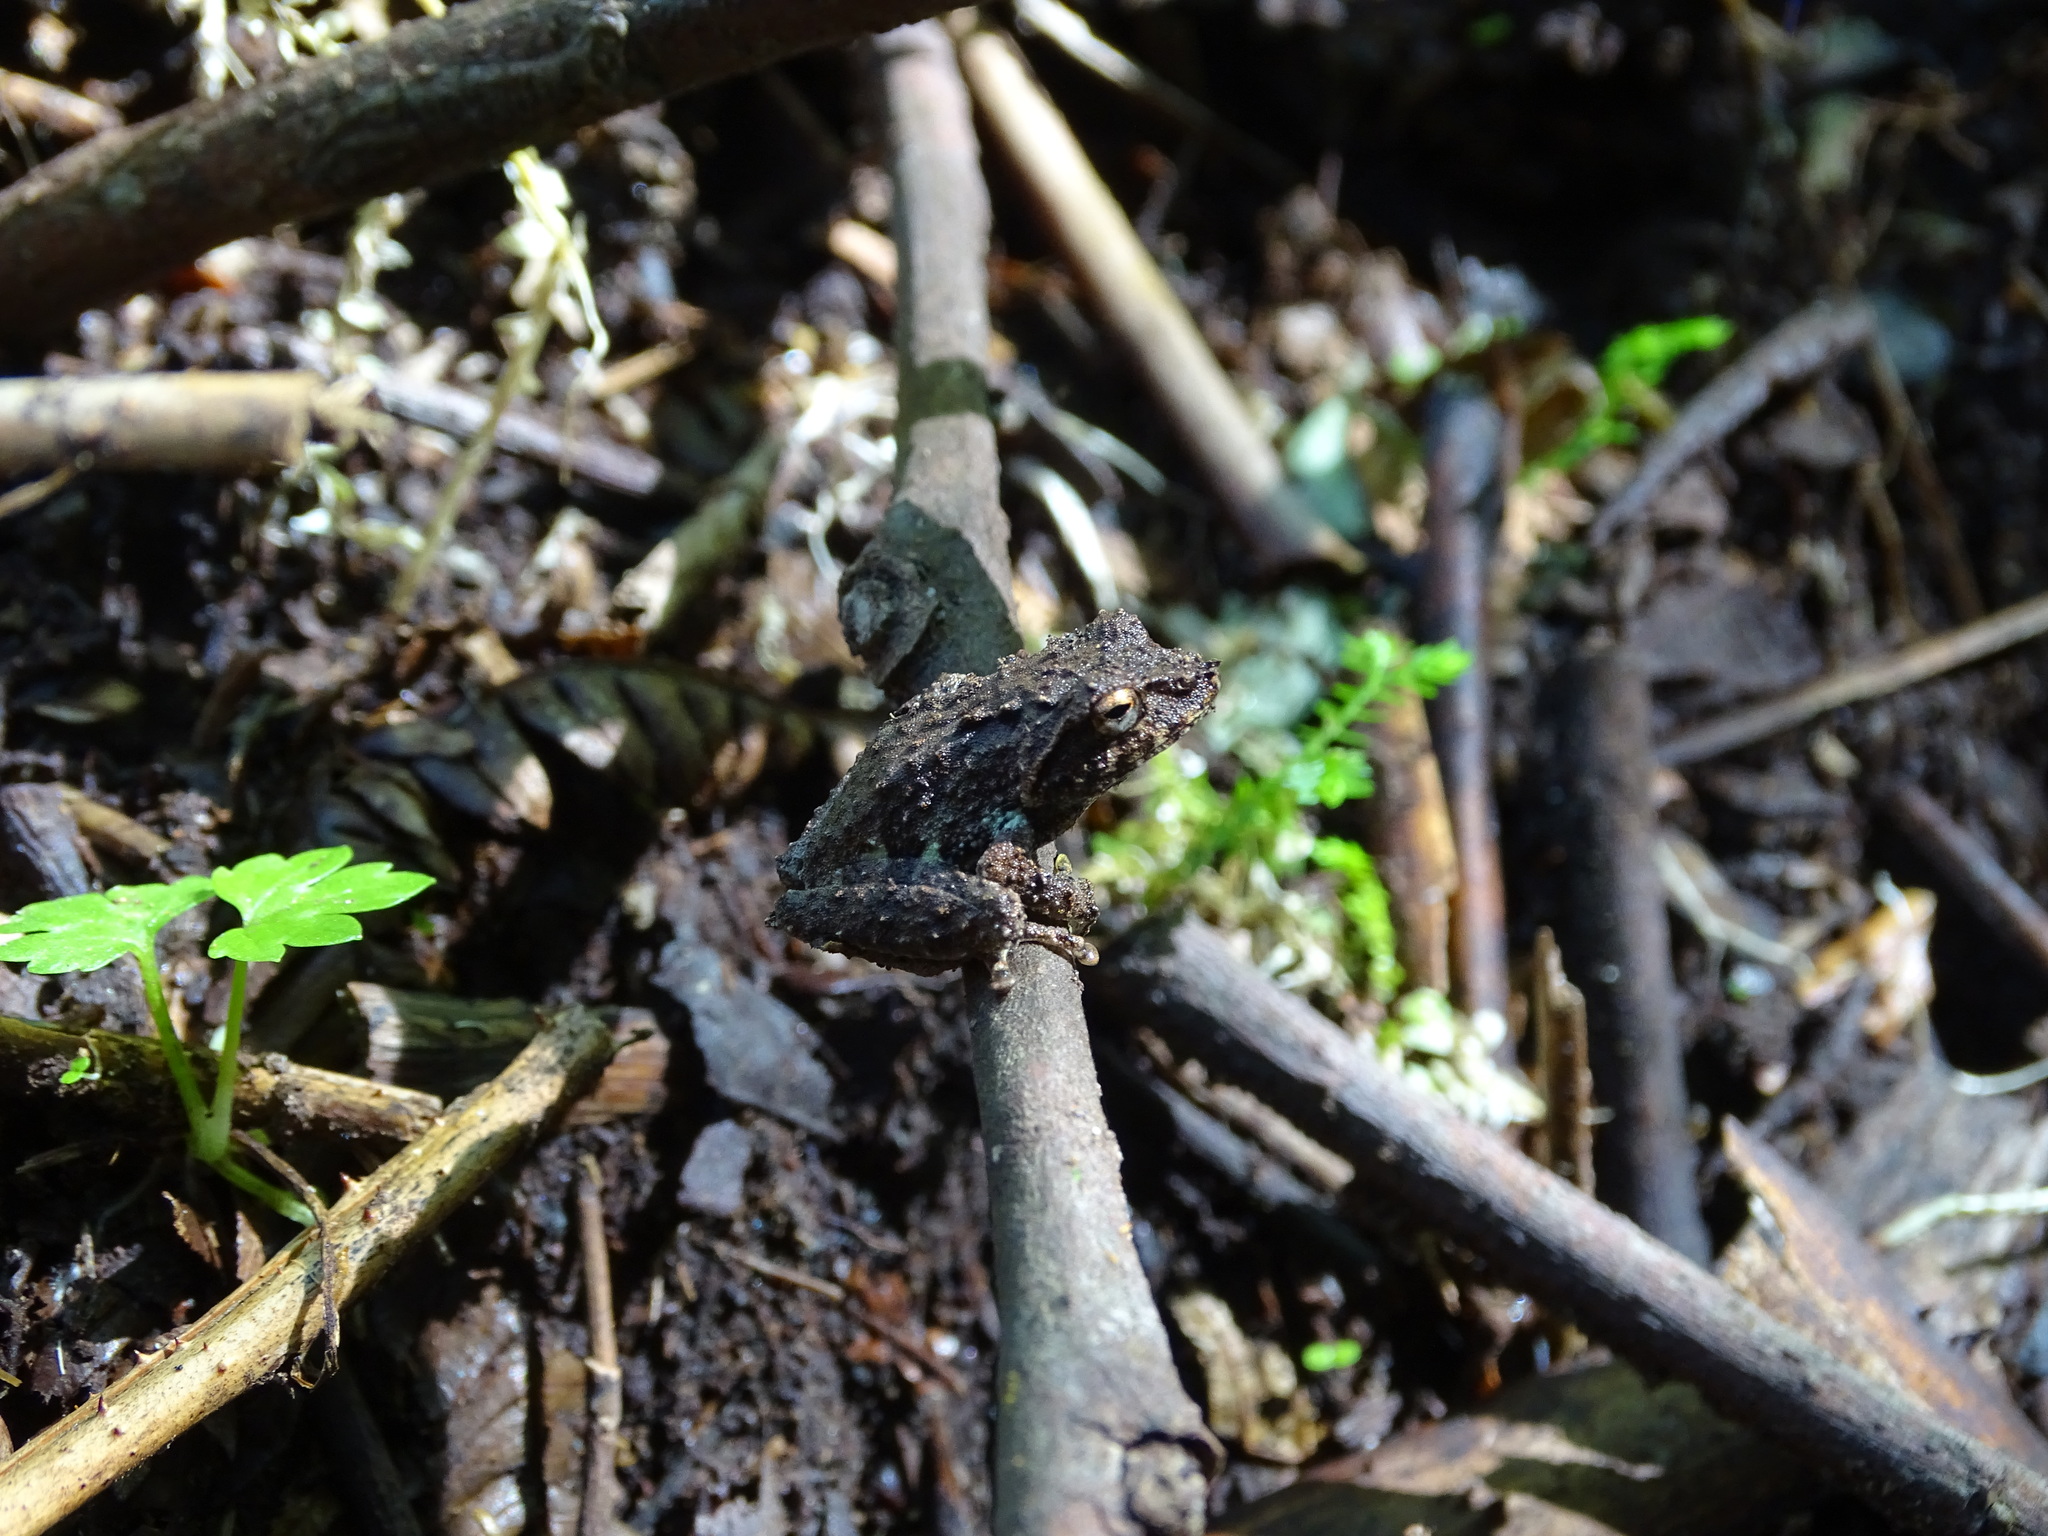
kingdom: Animalia
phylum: Chordata
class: Amphibia
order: Anura
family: Rhacophoridae
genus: Philautus
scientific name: Philautus aurifasciatus
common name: Java bubble-nest frog
